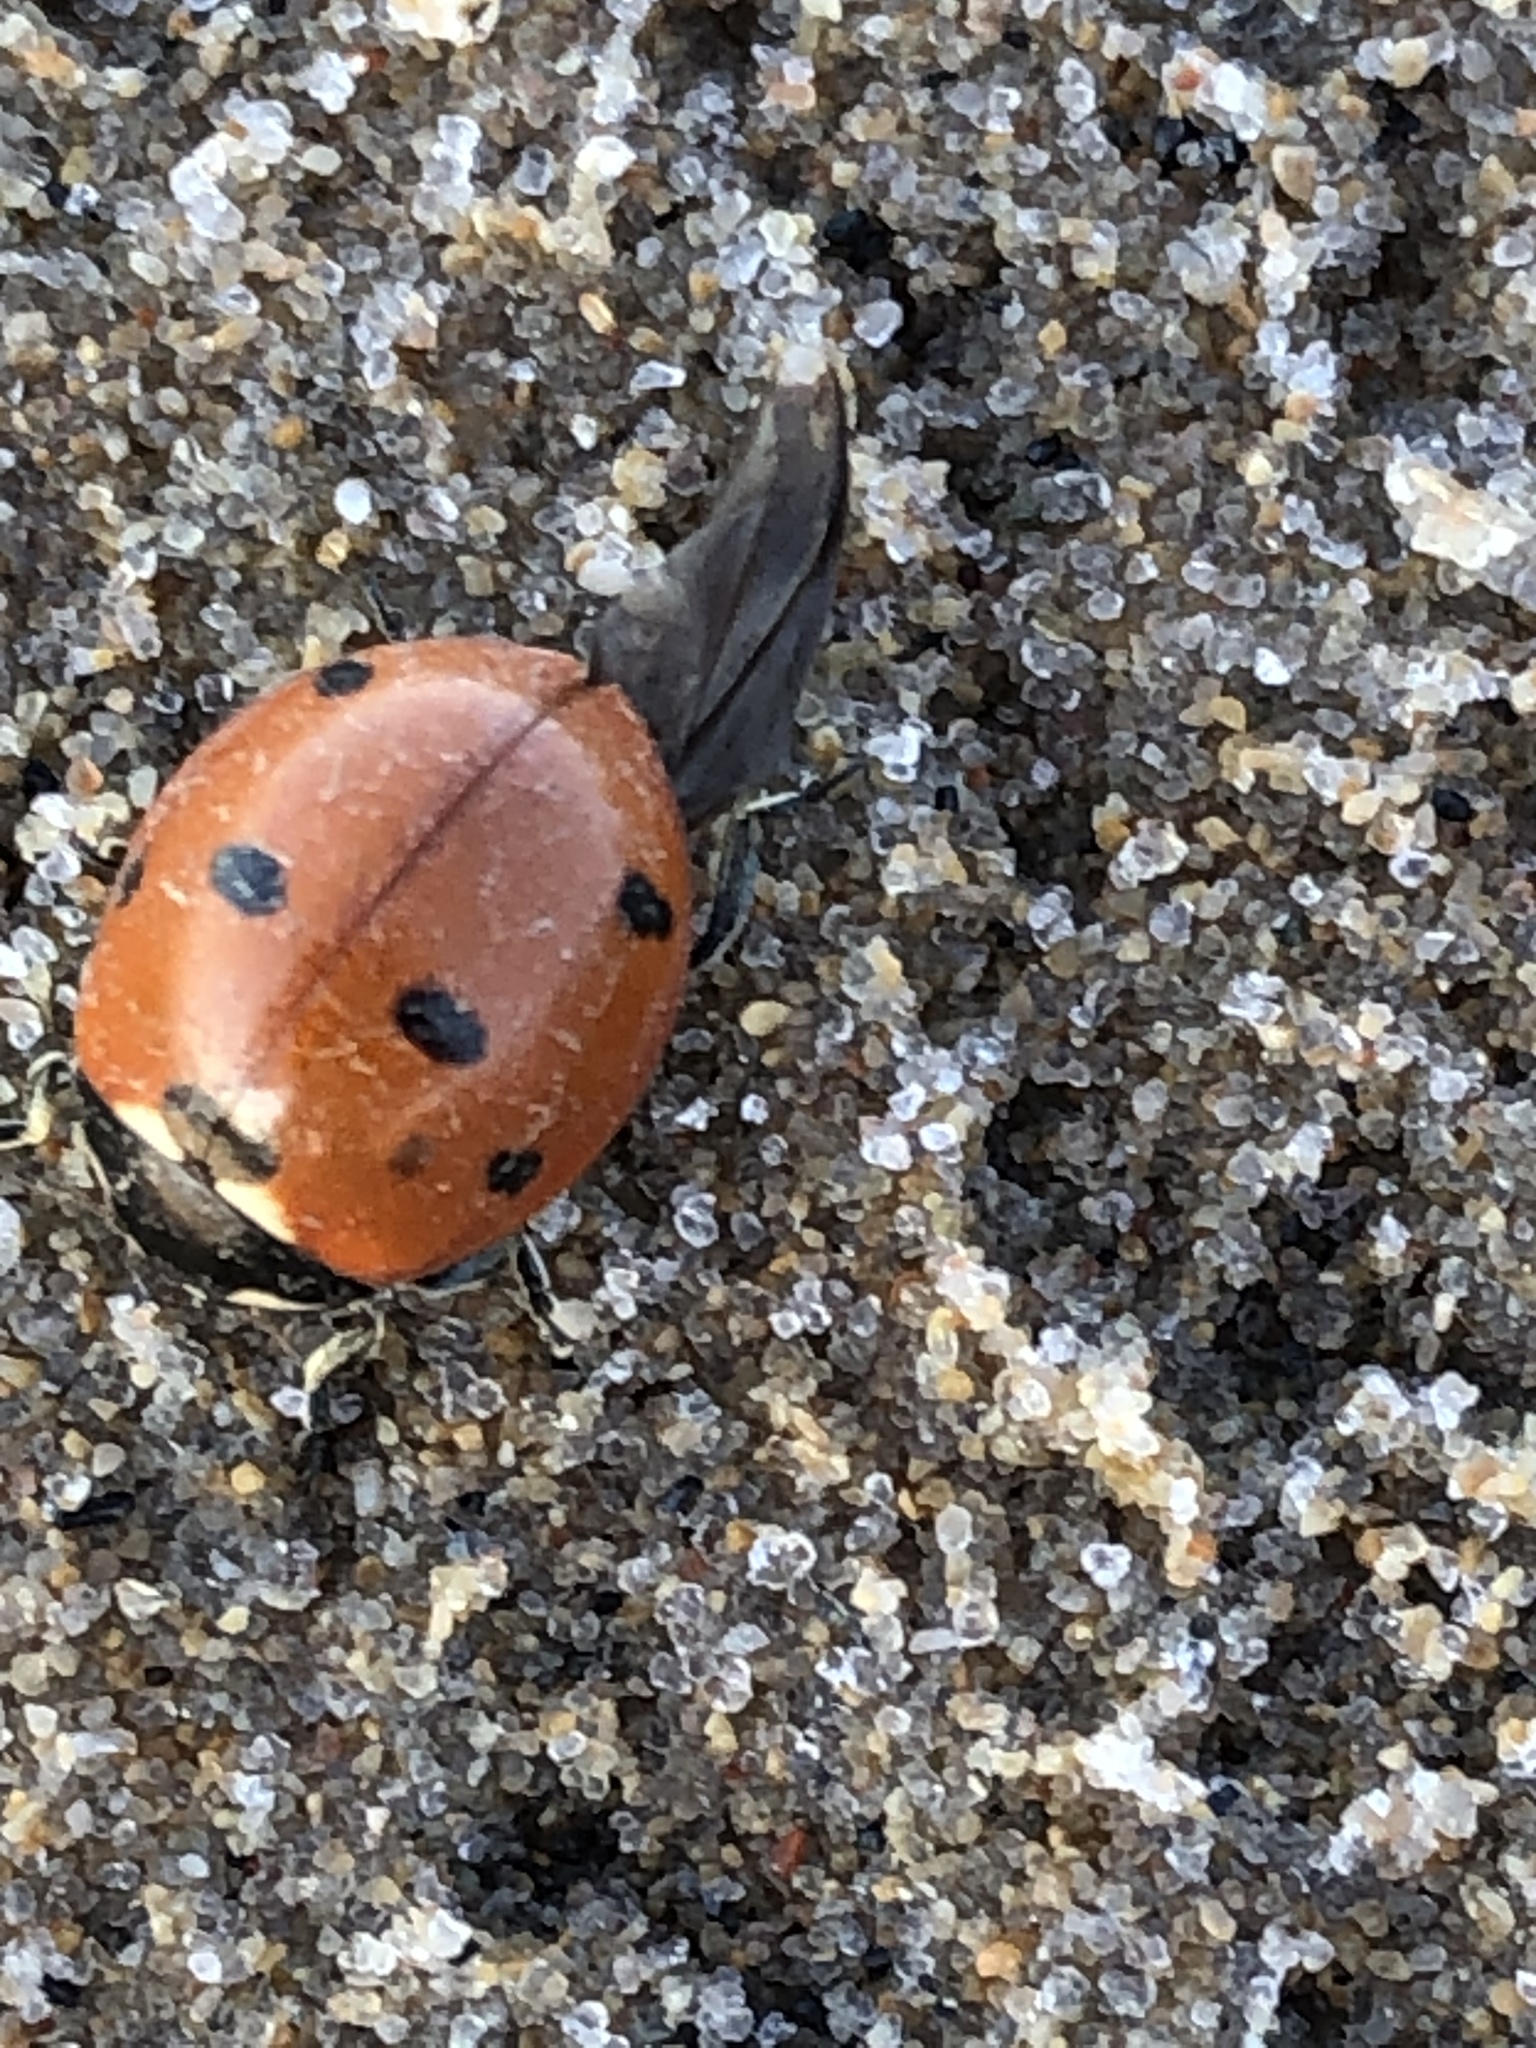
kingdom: Animalia
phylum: Arthropoda
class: Insecta
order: Coleoptera
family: Coccinellidae
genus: Coccinella
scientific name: Coccinella septempunctata
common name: Sevenspotted lady beetle
